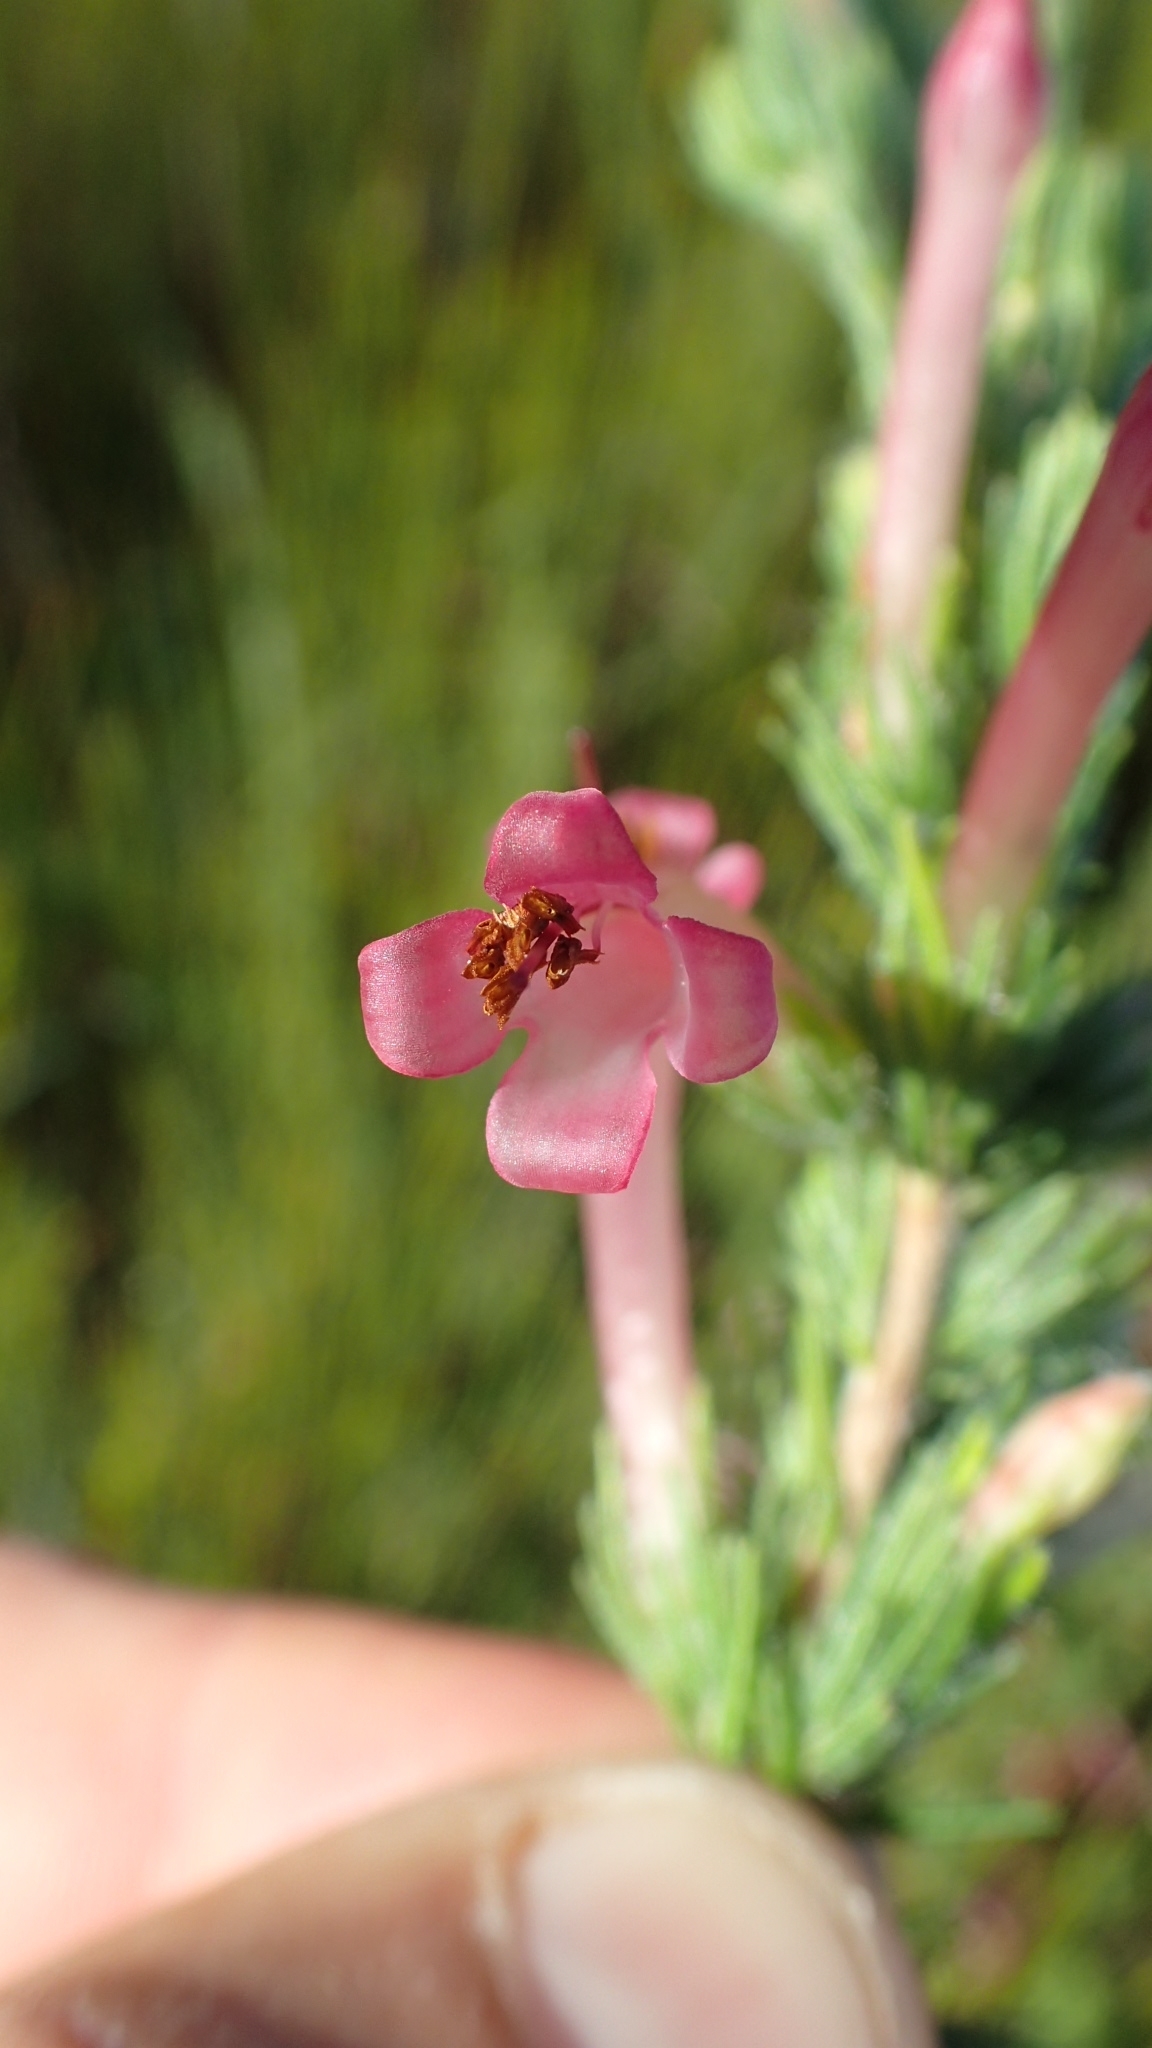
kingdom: Plantae
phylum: Tracheophyta
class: Magnoliopsida
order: Ericales
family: Ericaceae
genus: Erica
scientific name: Erica curviflora
